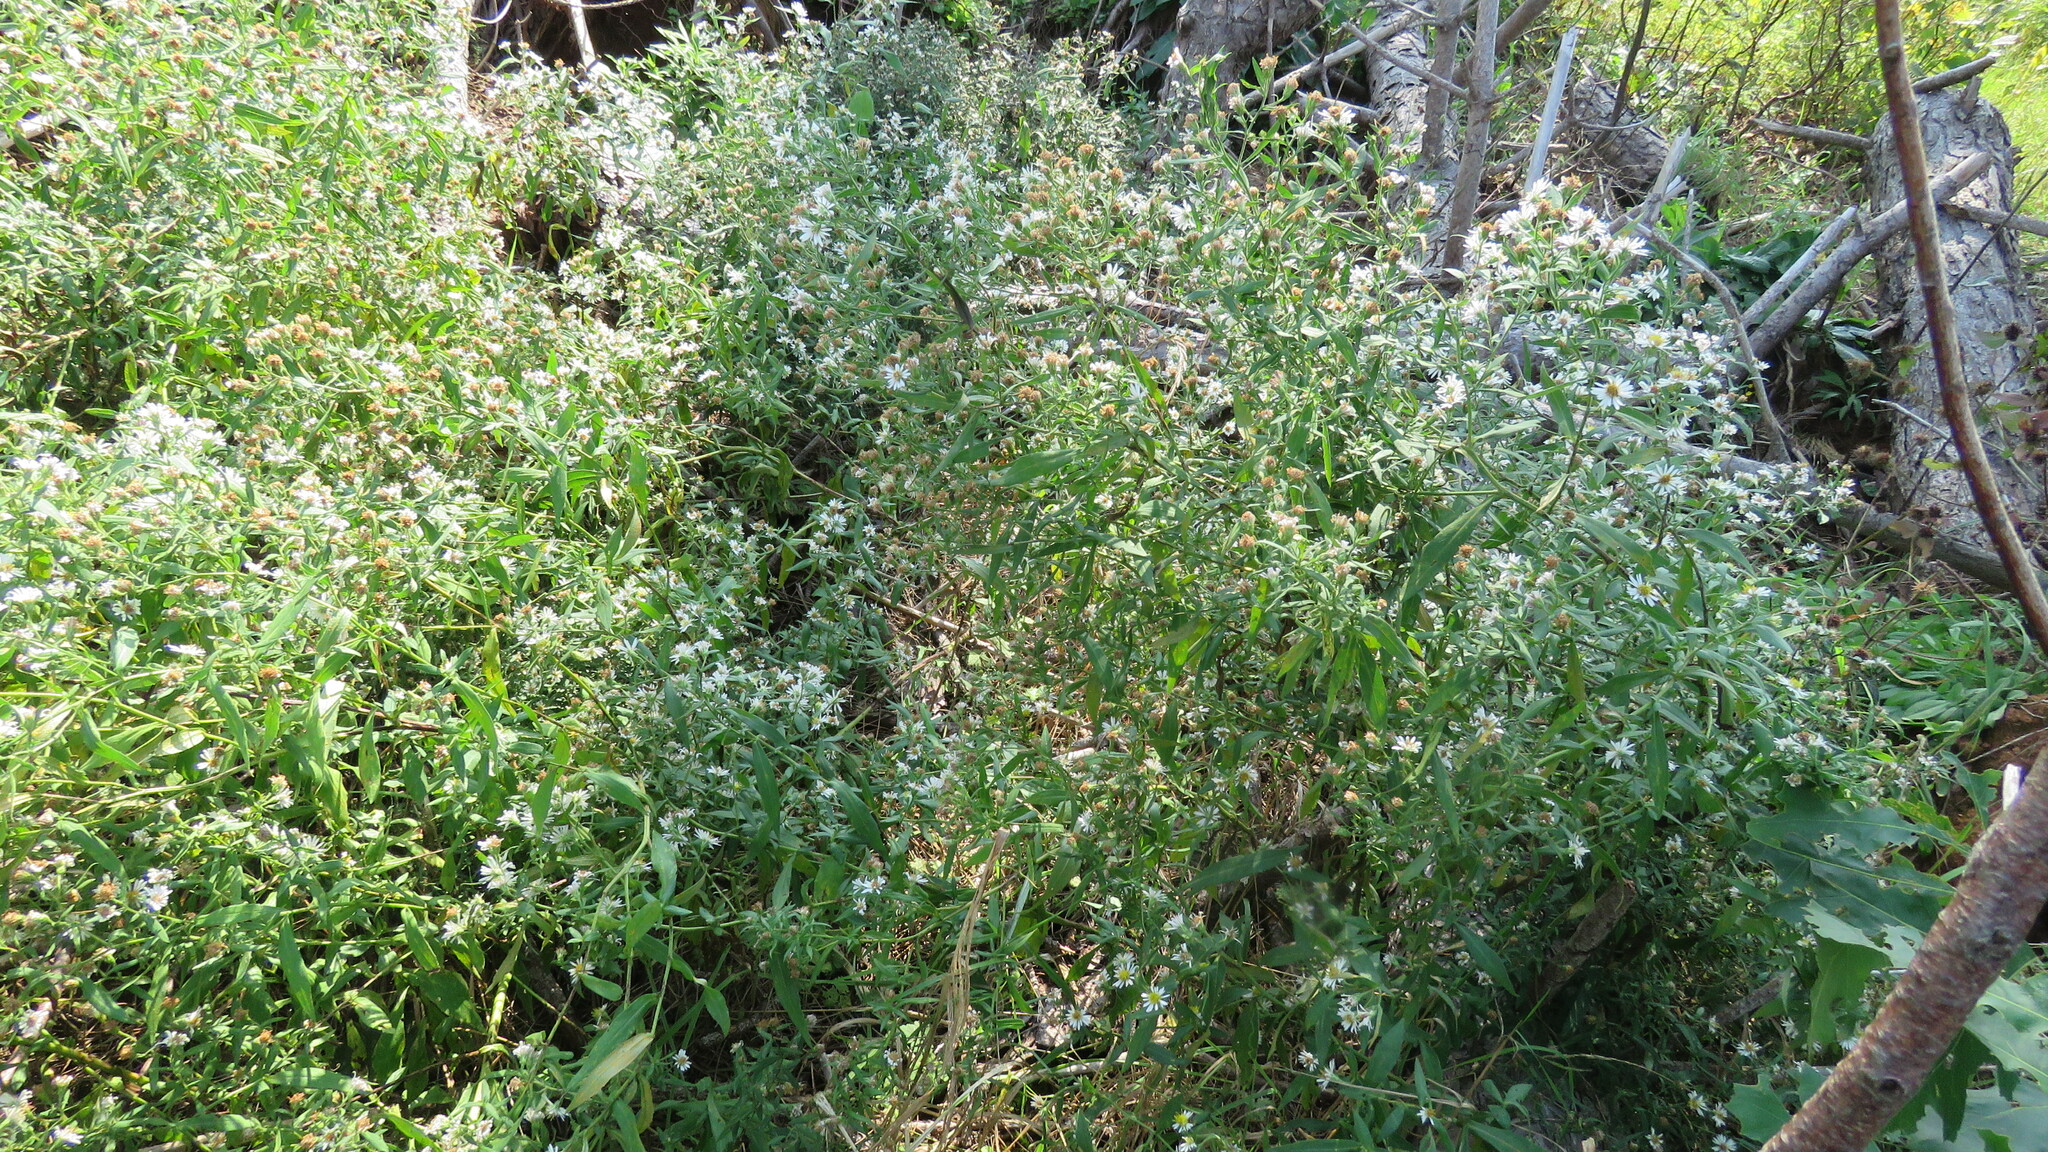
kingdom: Plantae
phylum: Tracheophyta
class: Magnoliopsida
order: Asterales
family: Asteraceae
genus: Symphyotrichum
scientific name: Symphyotrichum lanceolatum
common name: Panicled aster
